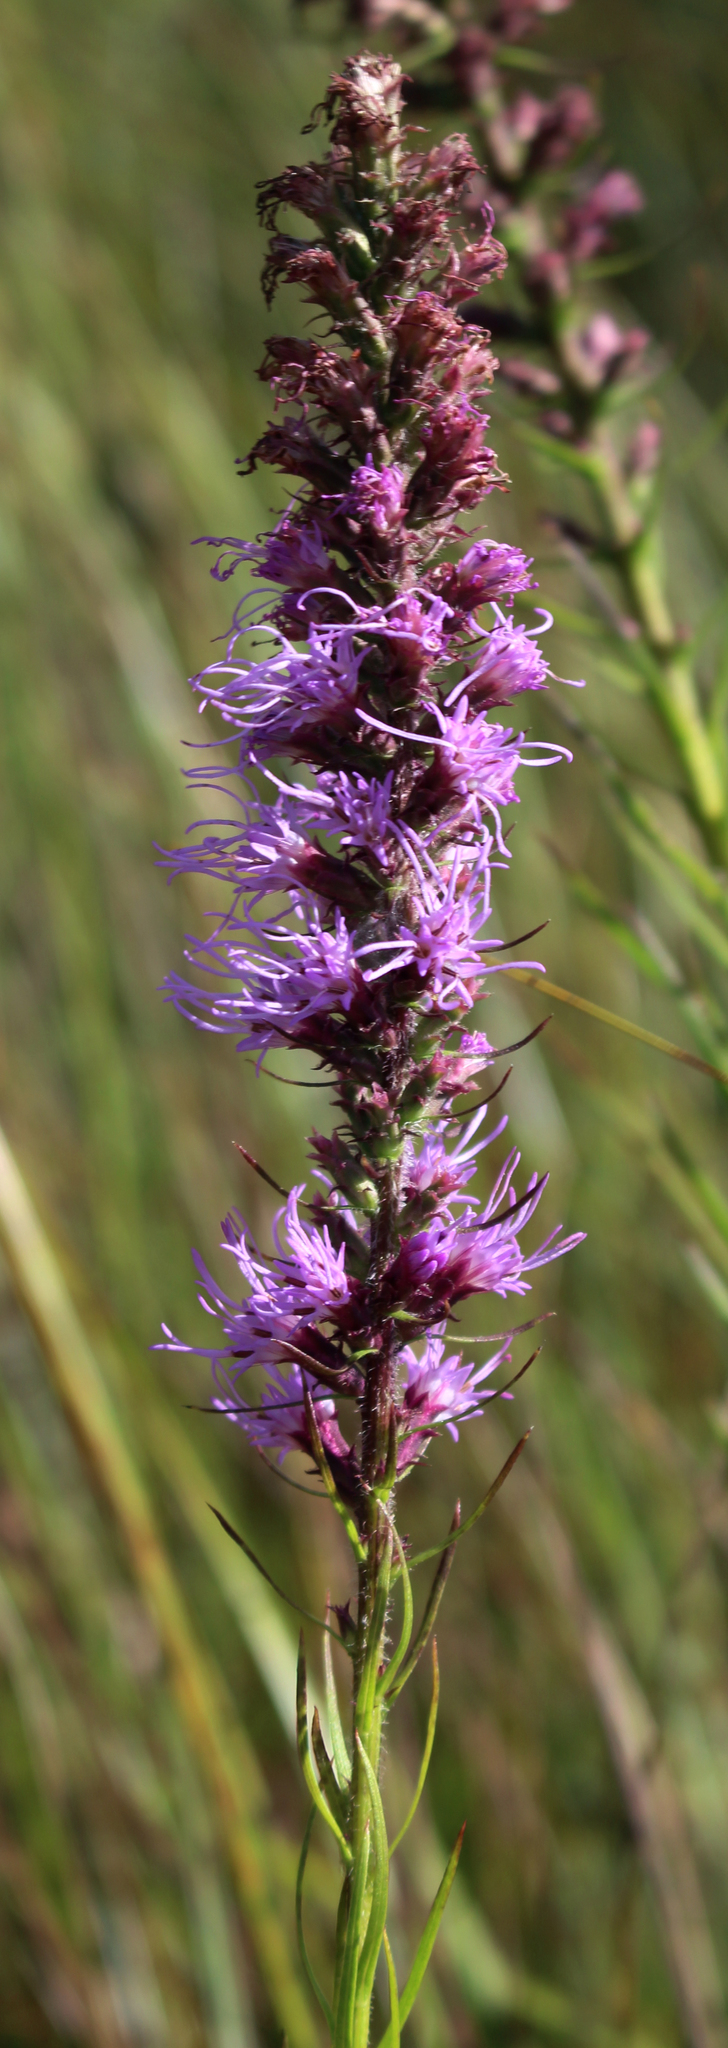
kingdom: Plantae
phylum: Tracheophyta
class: Magnoliopsida
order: Asterales
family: Asteraceae
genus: Liatris
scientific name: Liatris pycnostachya
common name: Cattail gayfeather
